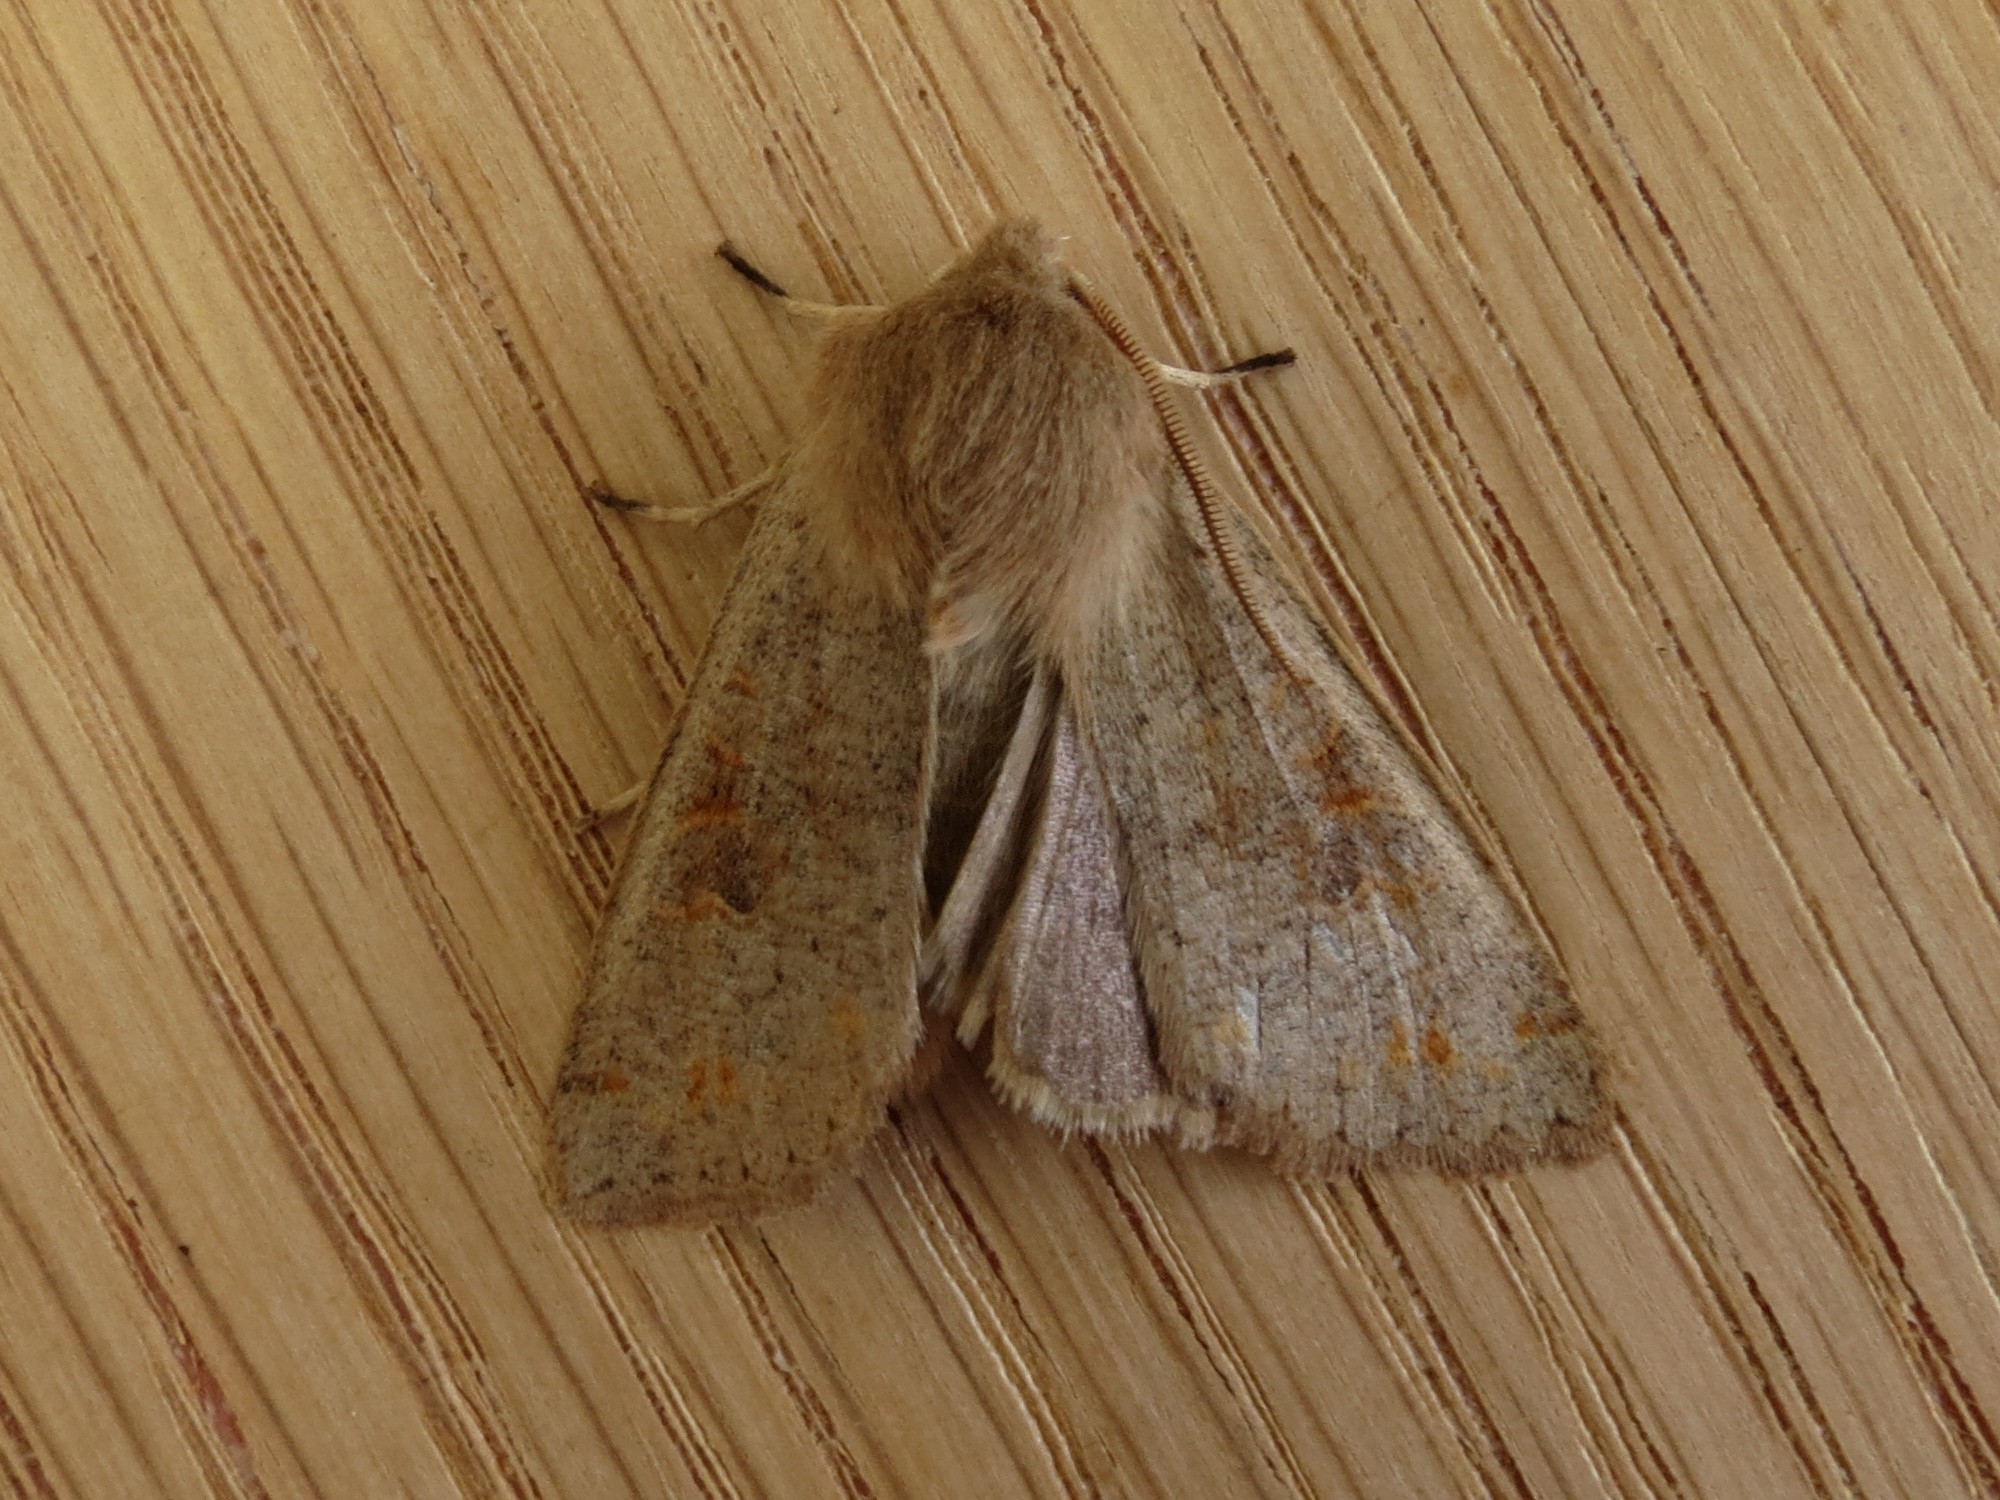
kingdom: Animalia
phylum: Arthropoda
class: Insecta
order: Lepidoptera
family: Noctuidae
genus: Anorthoa
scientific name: Anorthoa munda
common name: Twin-spotted quaker
